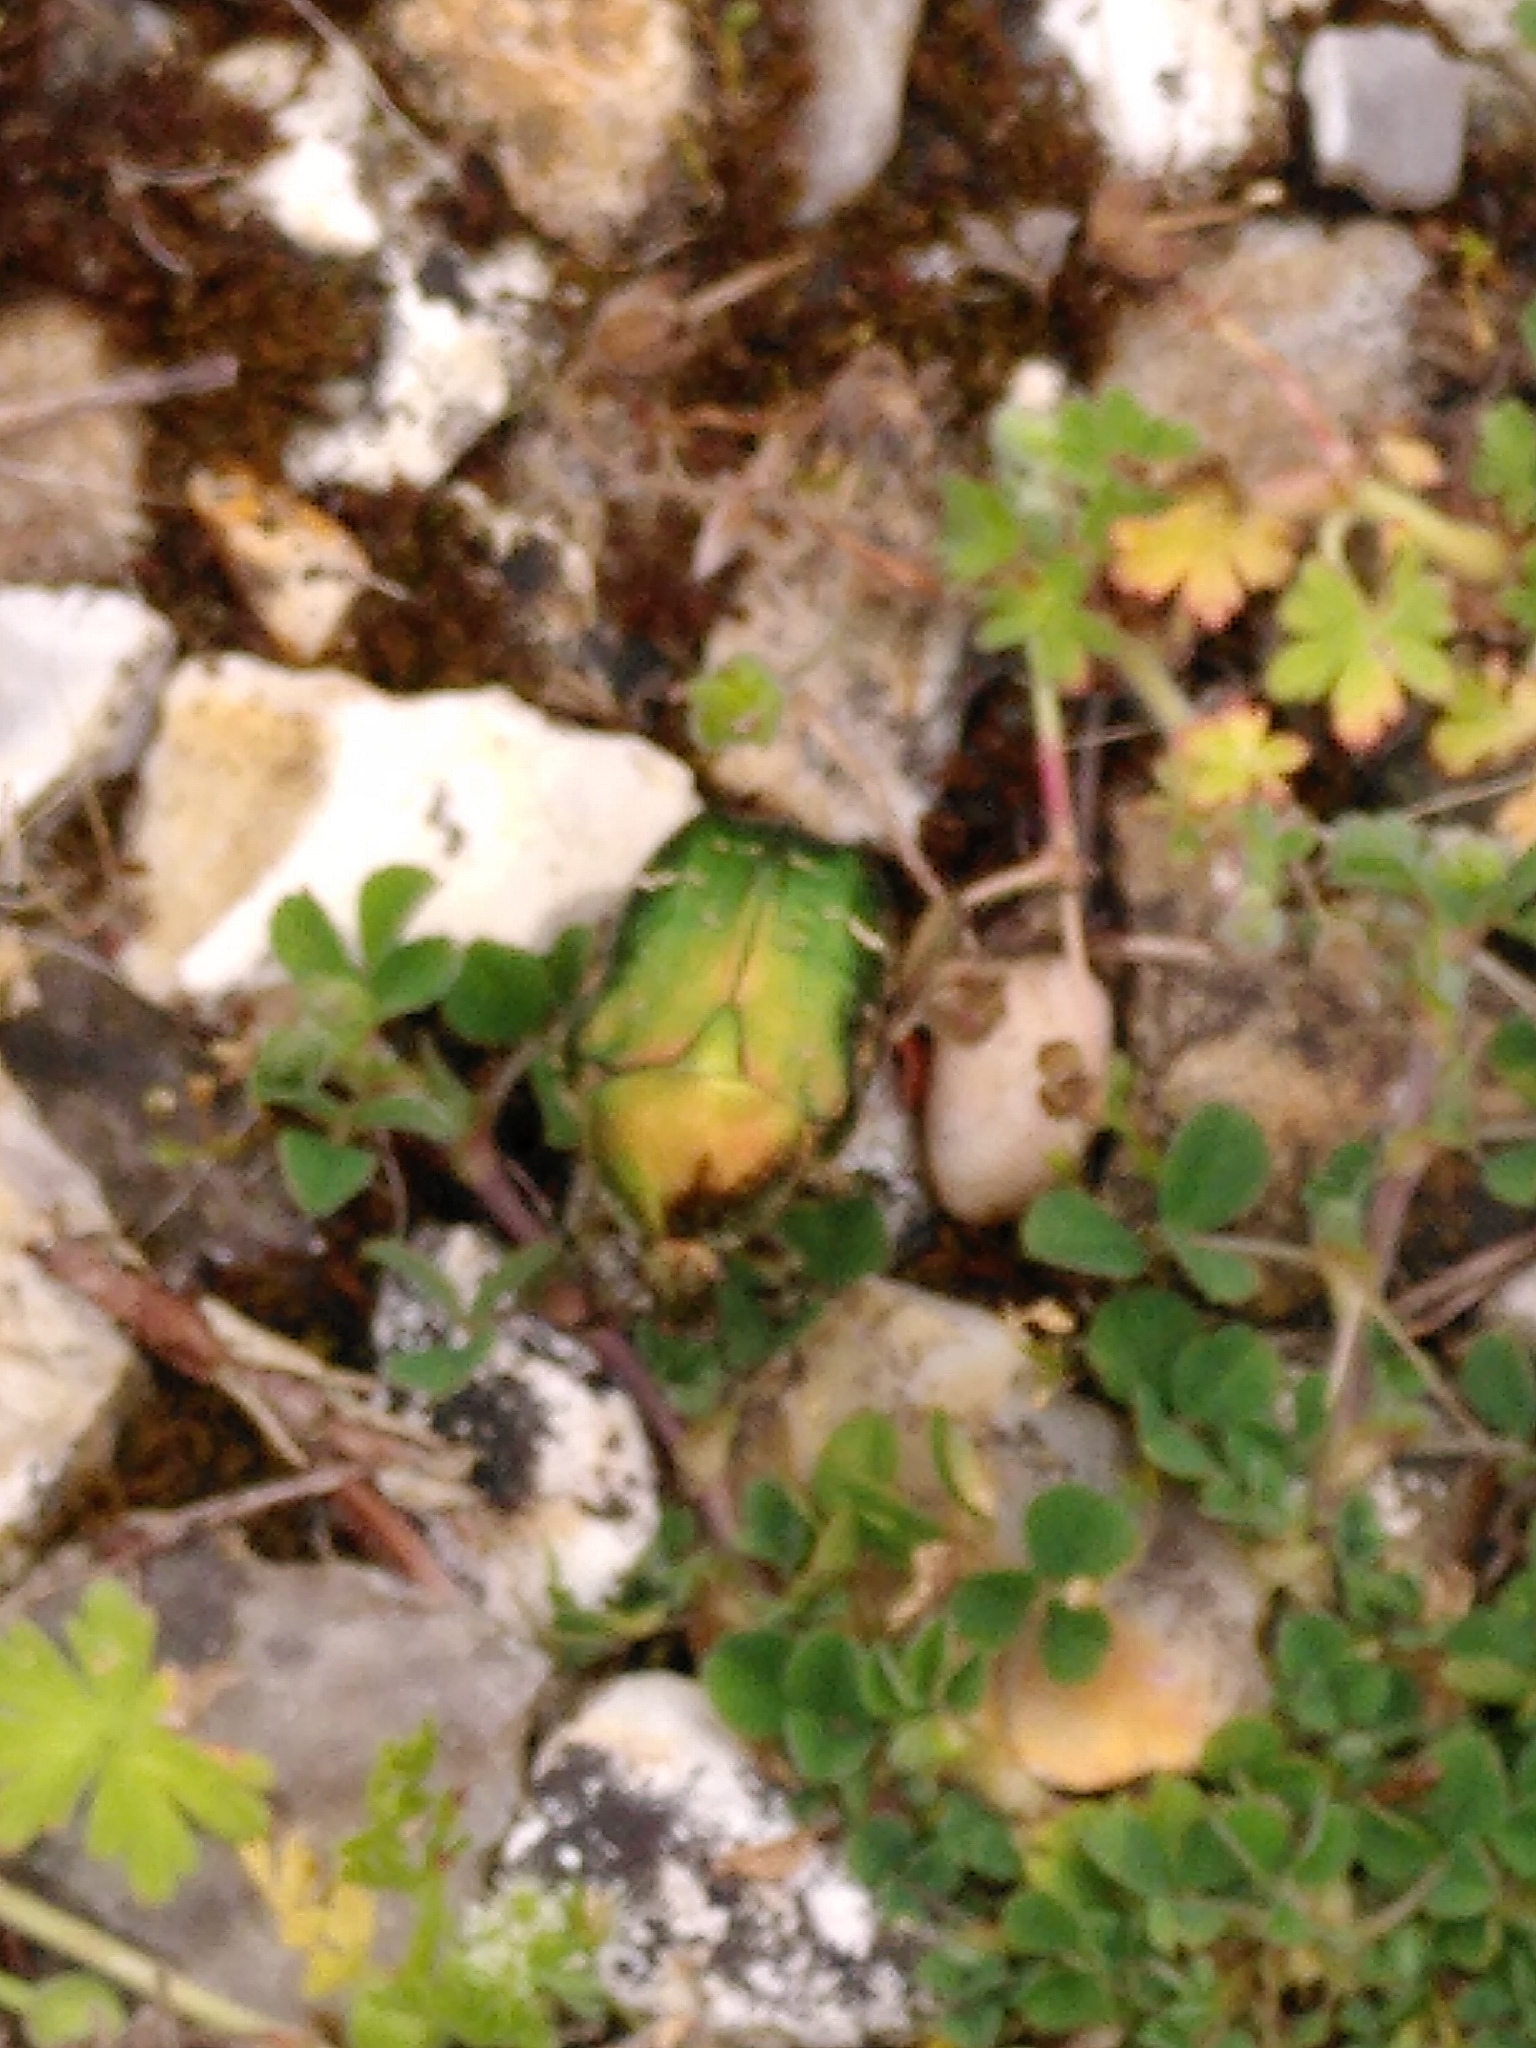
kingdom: Animalia
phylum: Arthropoda
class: Insecta
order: Coleoptera
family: Scarabaeidae
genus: Cetonia
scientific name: Cetonia aurata
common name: Rose chafer
